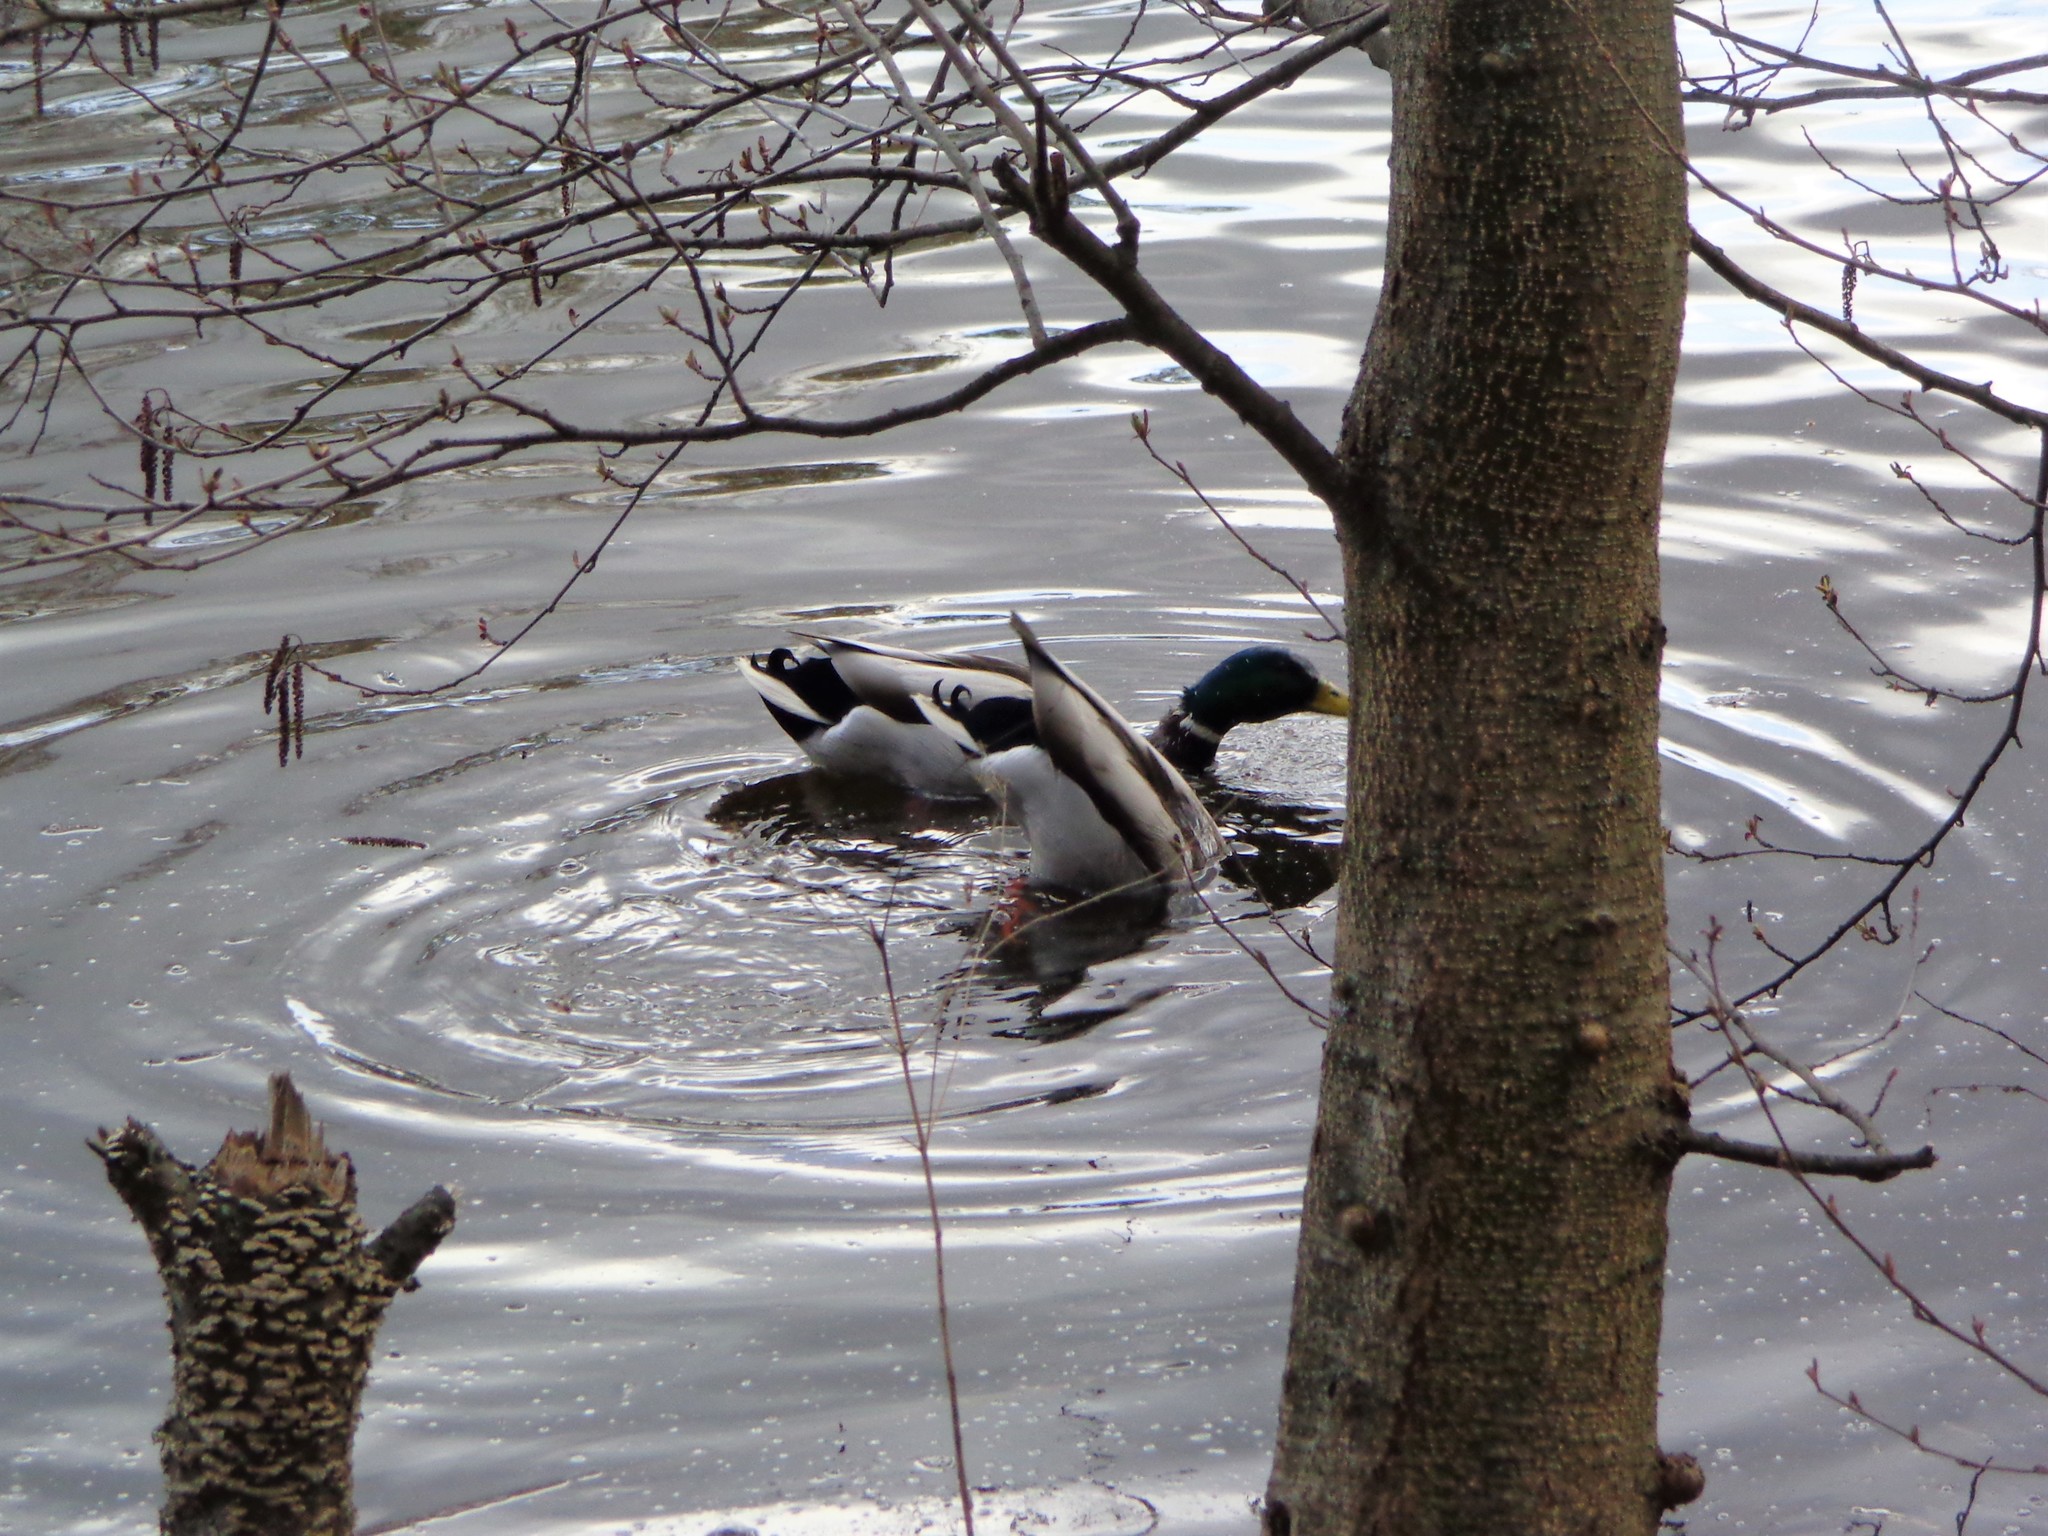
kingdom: Animalia
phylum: Chordata
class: Aves
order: Anseriformes
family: Anatidae
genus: Anas
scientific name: Anas platyrhynchos
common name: Mallard
